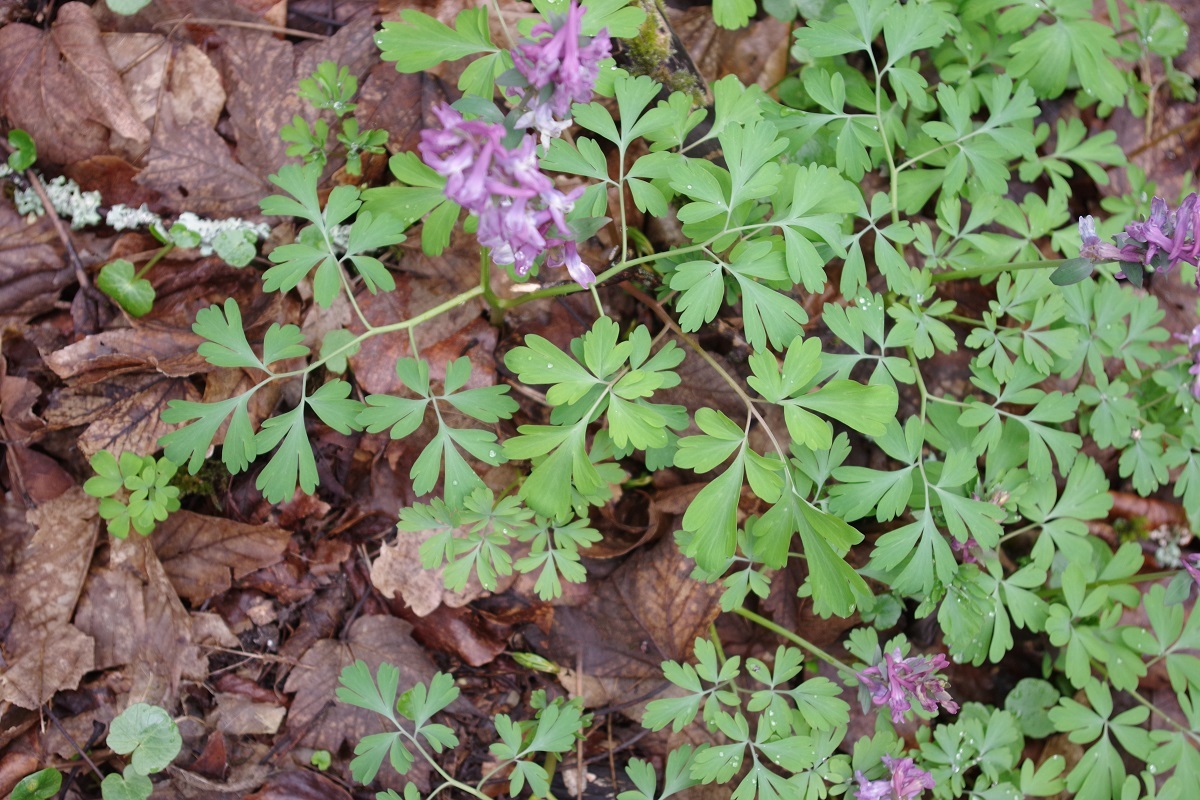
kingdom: Plantae
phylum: Tracheophyta
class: Magnoliopsida
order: Ranunculales
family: Papaveraceae
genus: Corydalis
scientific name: Corydalis cava
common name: Hollowroot
